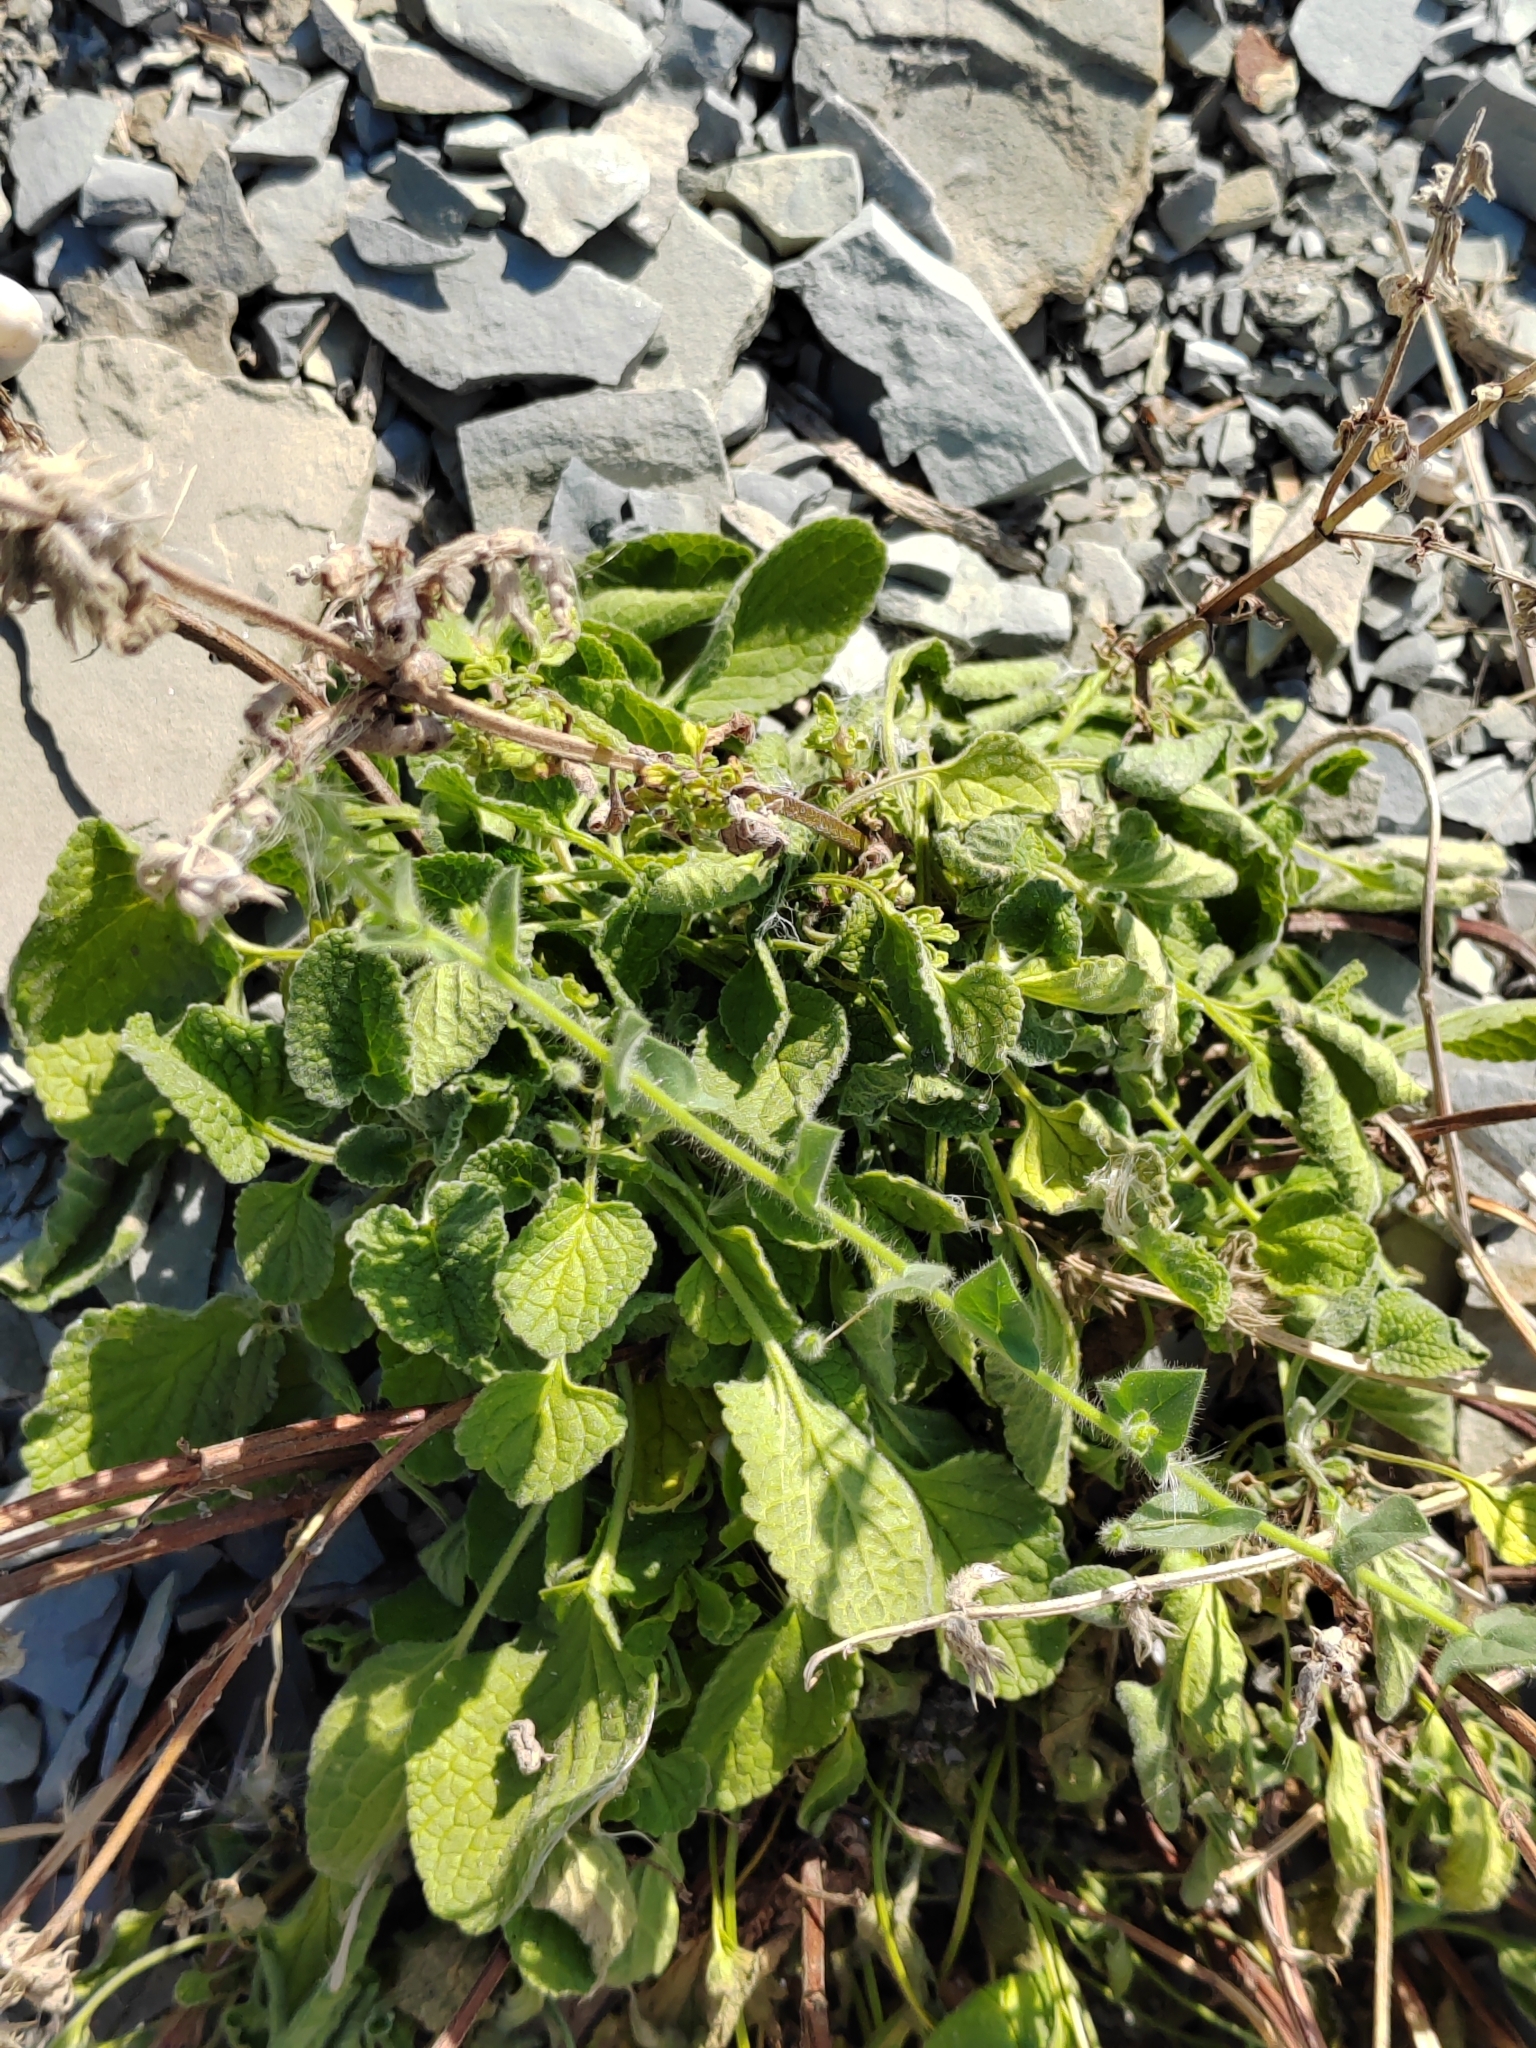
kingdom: Plantae
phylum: Tracheophyta
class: Magnoliopsida
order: Lamiales
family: Lamiaceae
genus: Salvia
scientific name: Salvia verticillata
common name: Whorled clary
